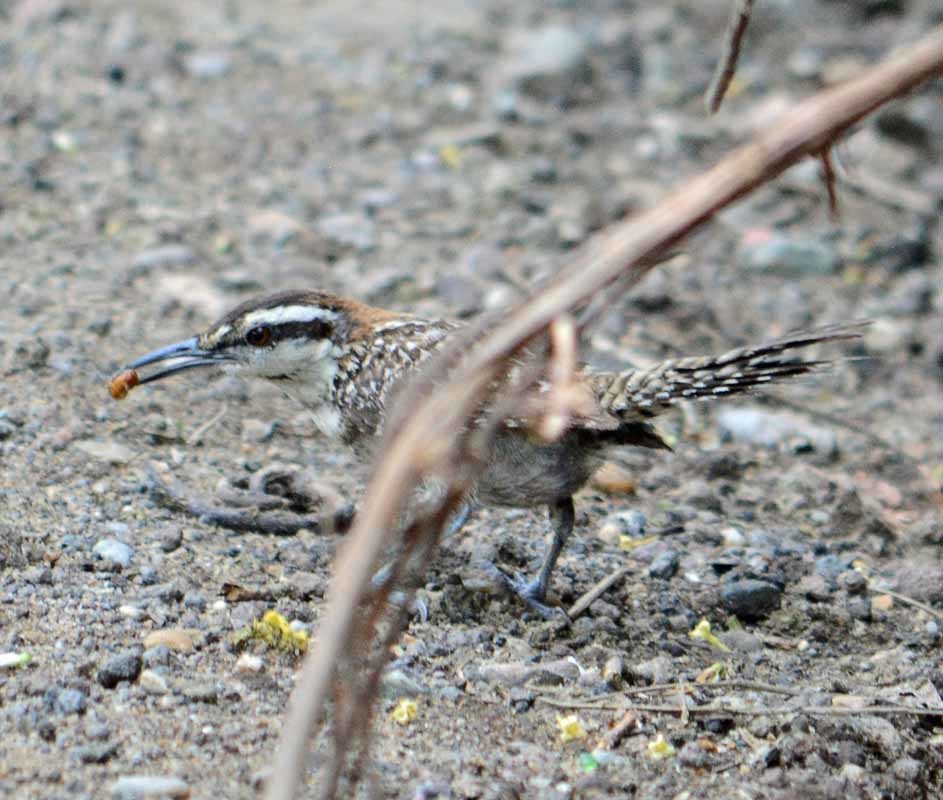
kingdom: Animalia
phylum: Chordata
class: Aves
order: Passeriformes
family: Troglodytidae
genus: Campylorhynchus
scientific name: Campylorhynchus rufinucha
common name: Rufous-naped wren
